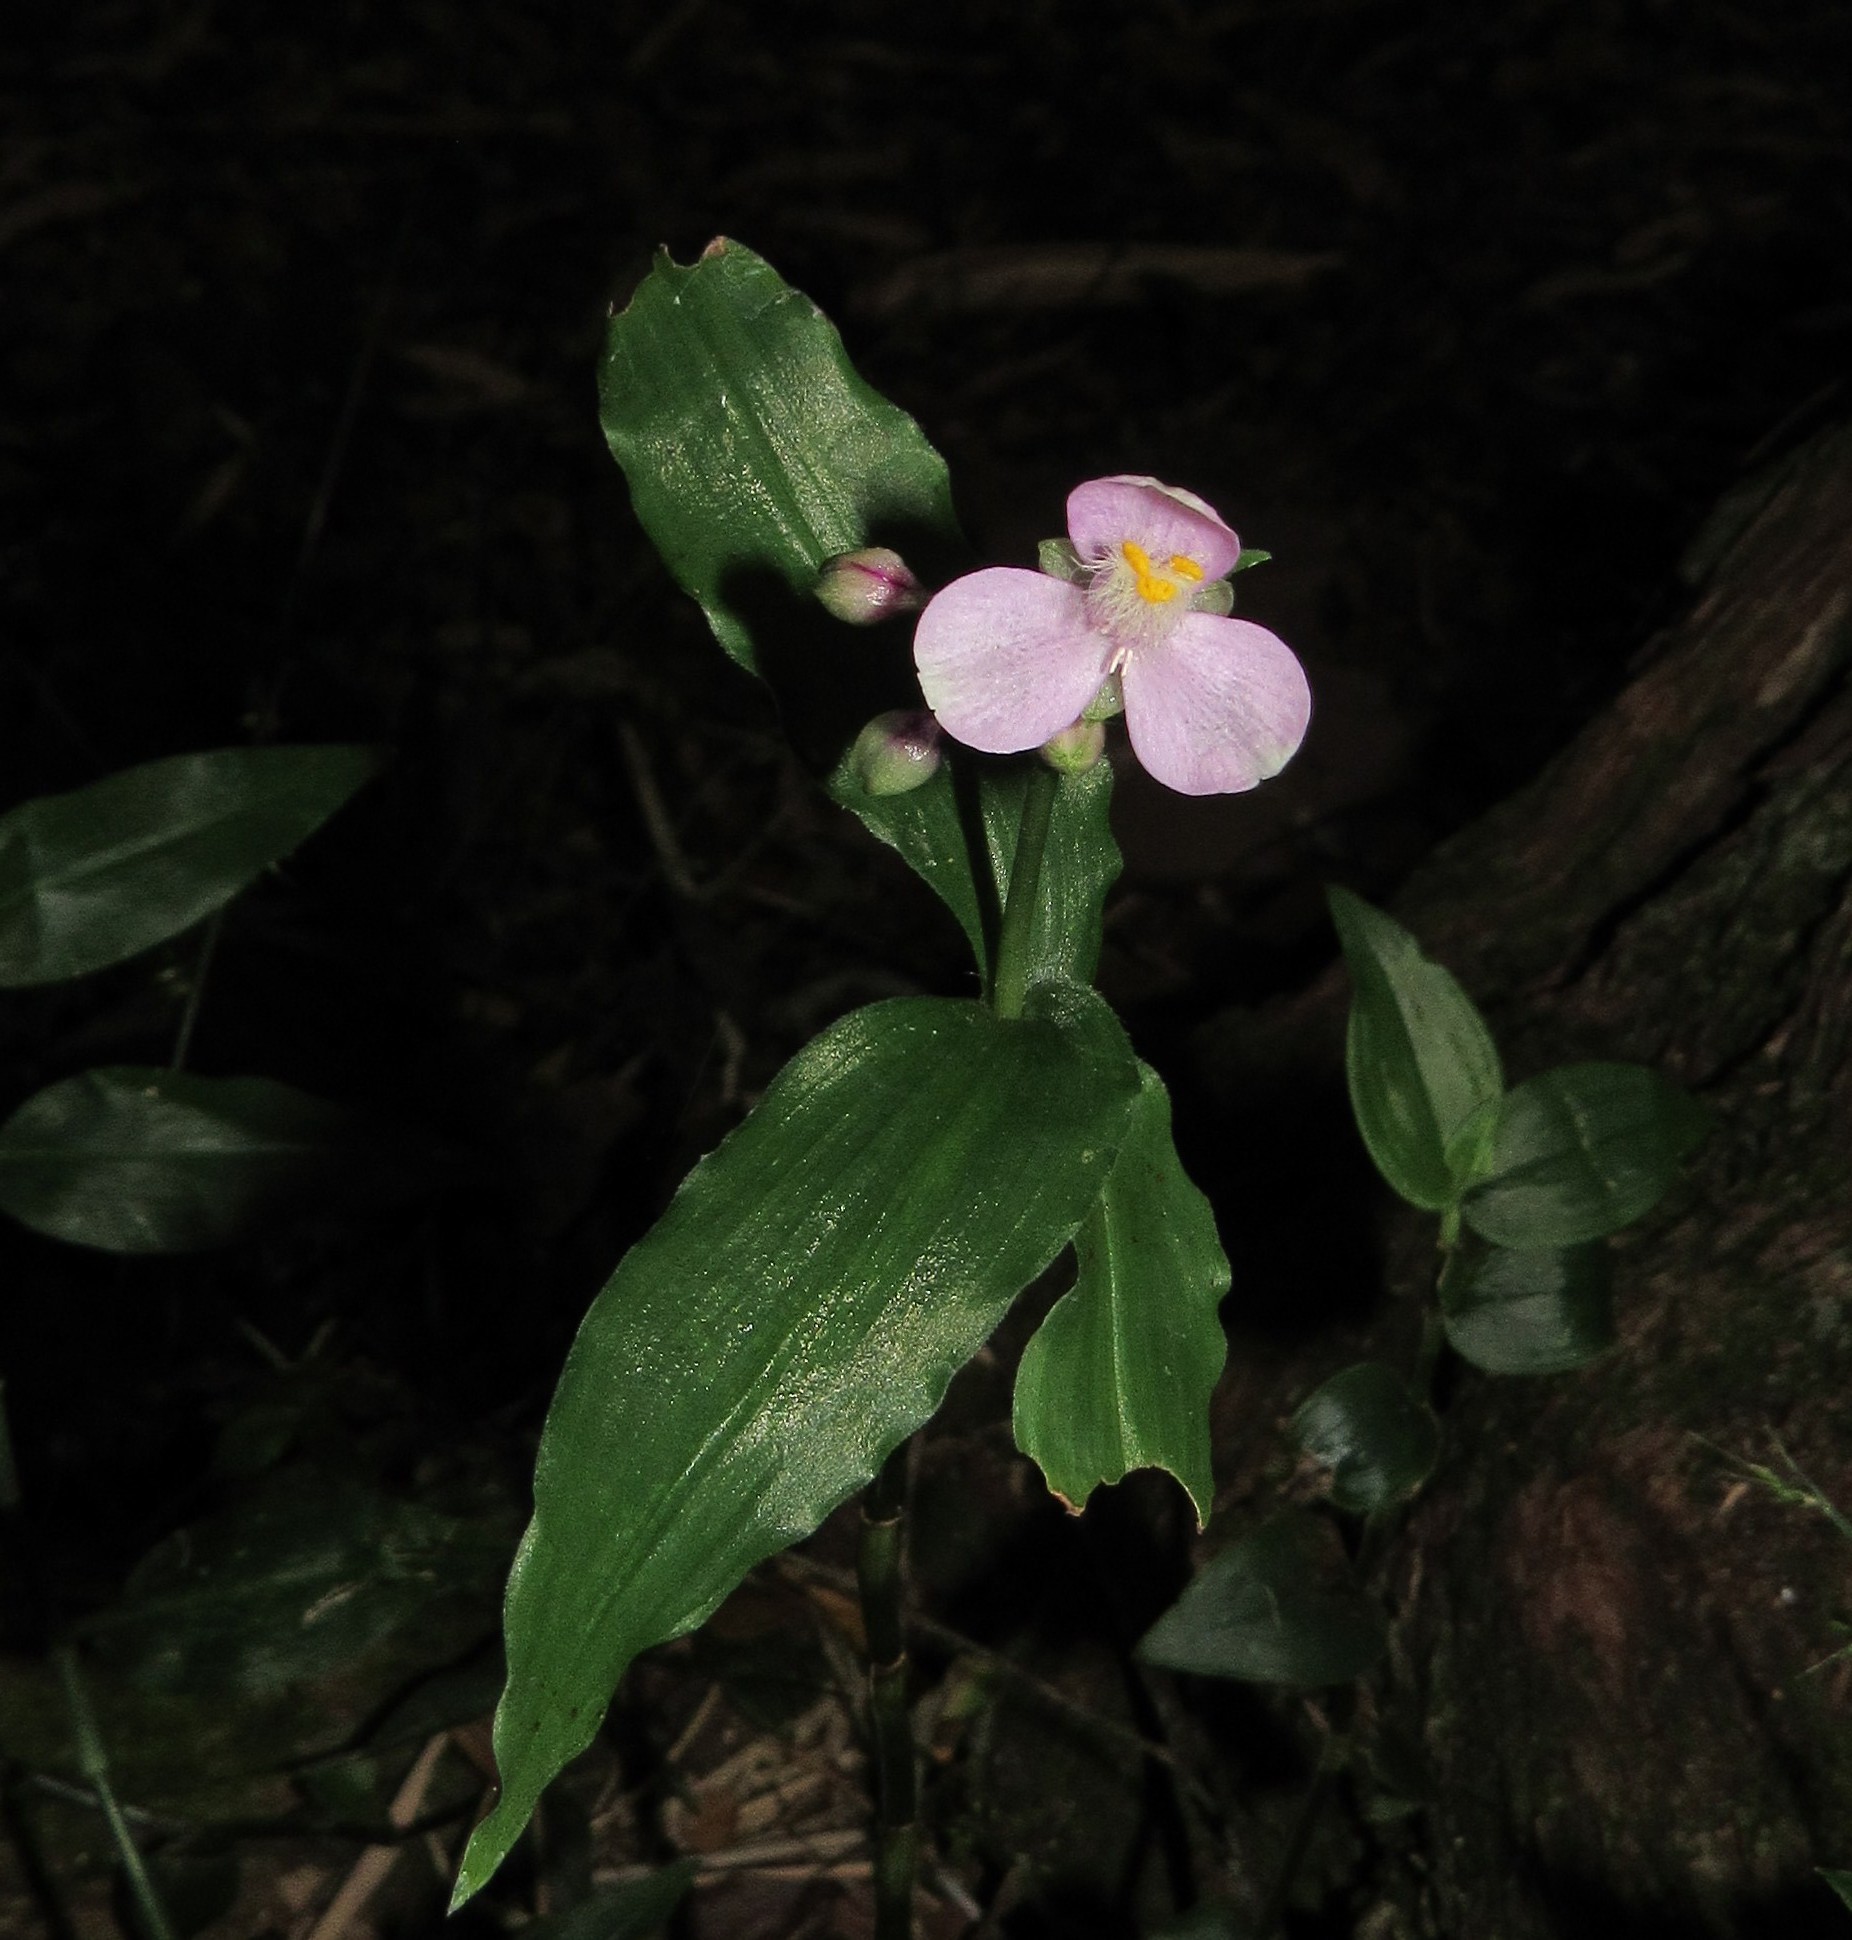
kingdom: Plantae
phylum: Tracheophyta
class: Liliopsida
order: Commelinales
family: Commelinaceae
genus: Callisia
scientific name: Callisia diuretica
